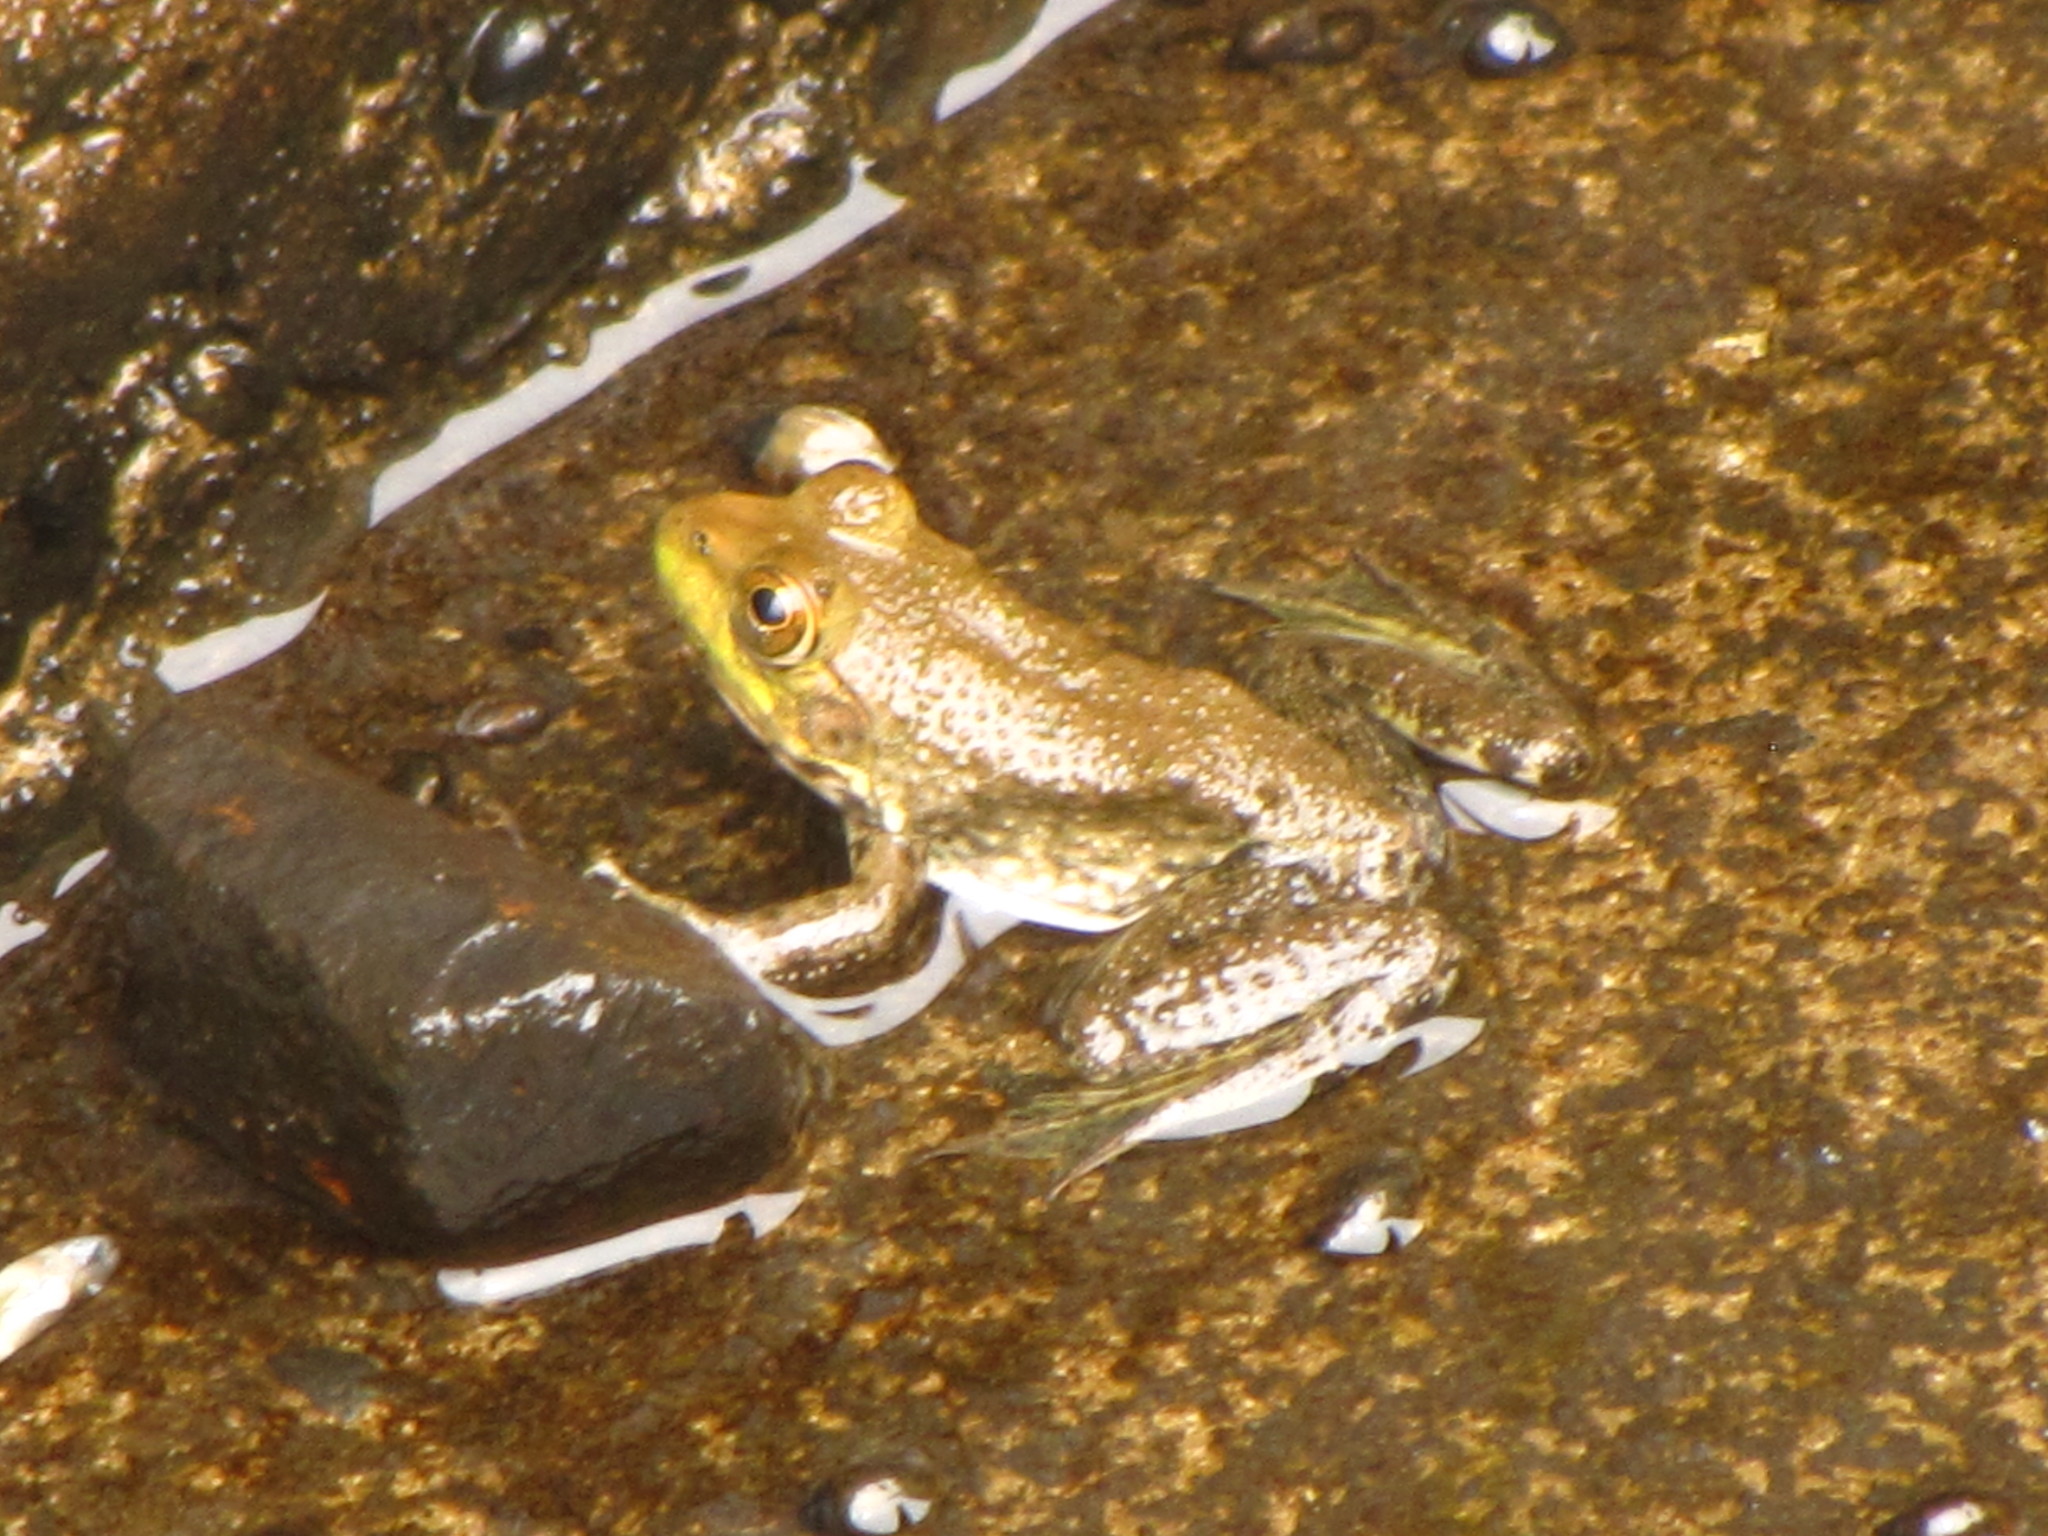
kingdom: Animalia
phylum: Chordata
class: Amphibia
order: Anura
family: Ranidae
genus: Lithobates
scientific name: Lithobates catesbeianus
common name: American bullfrog
